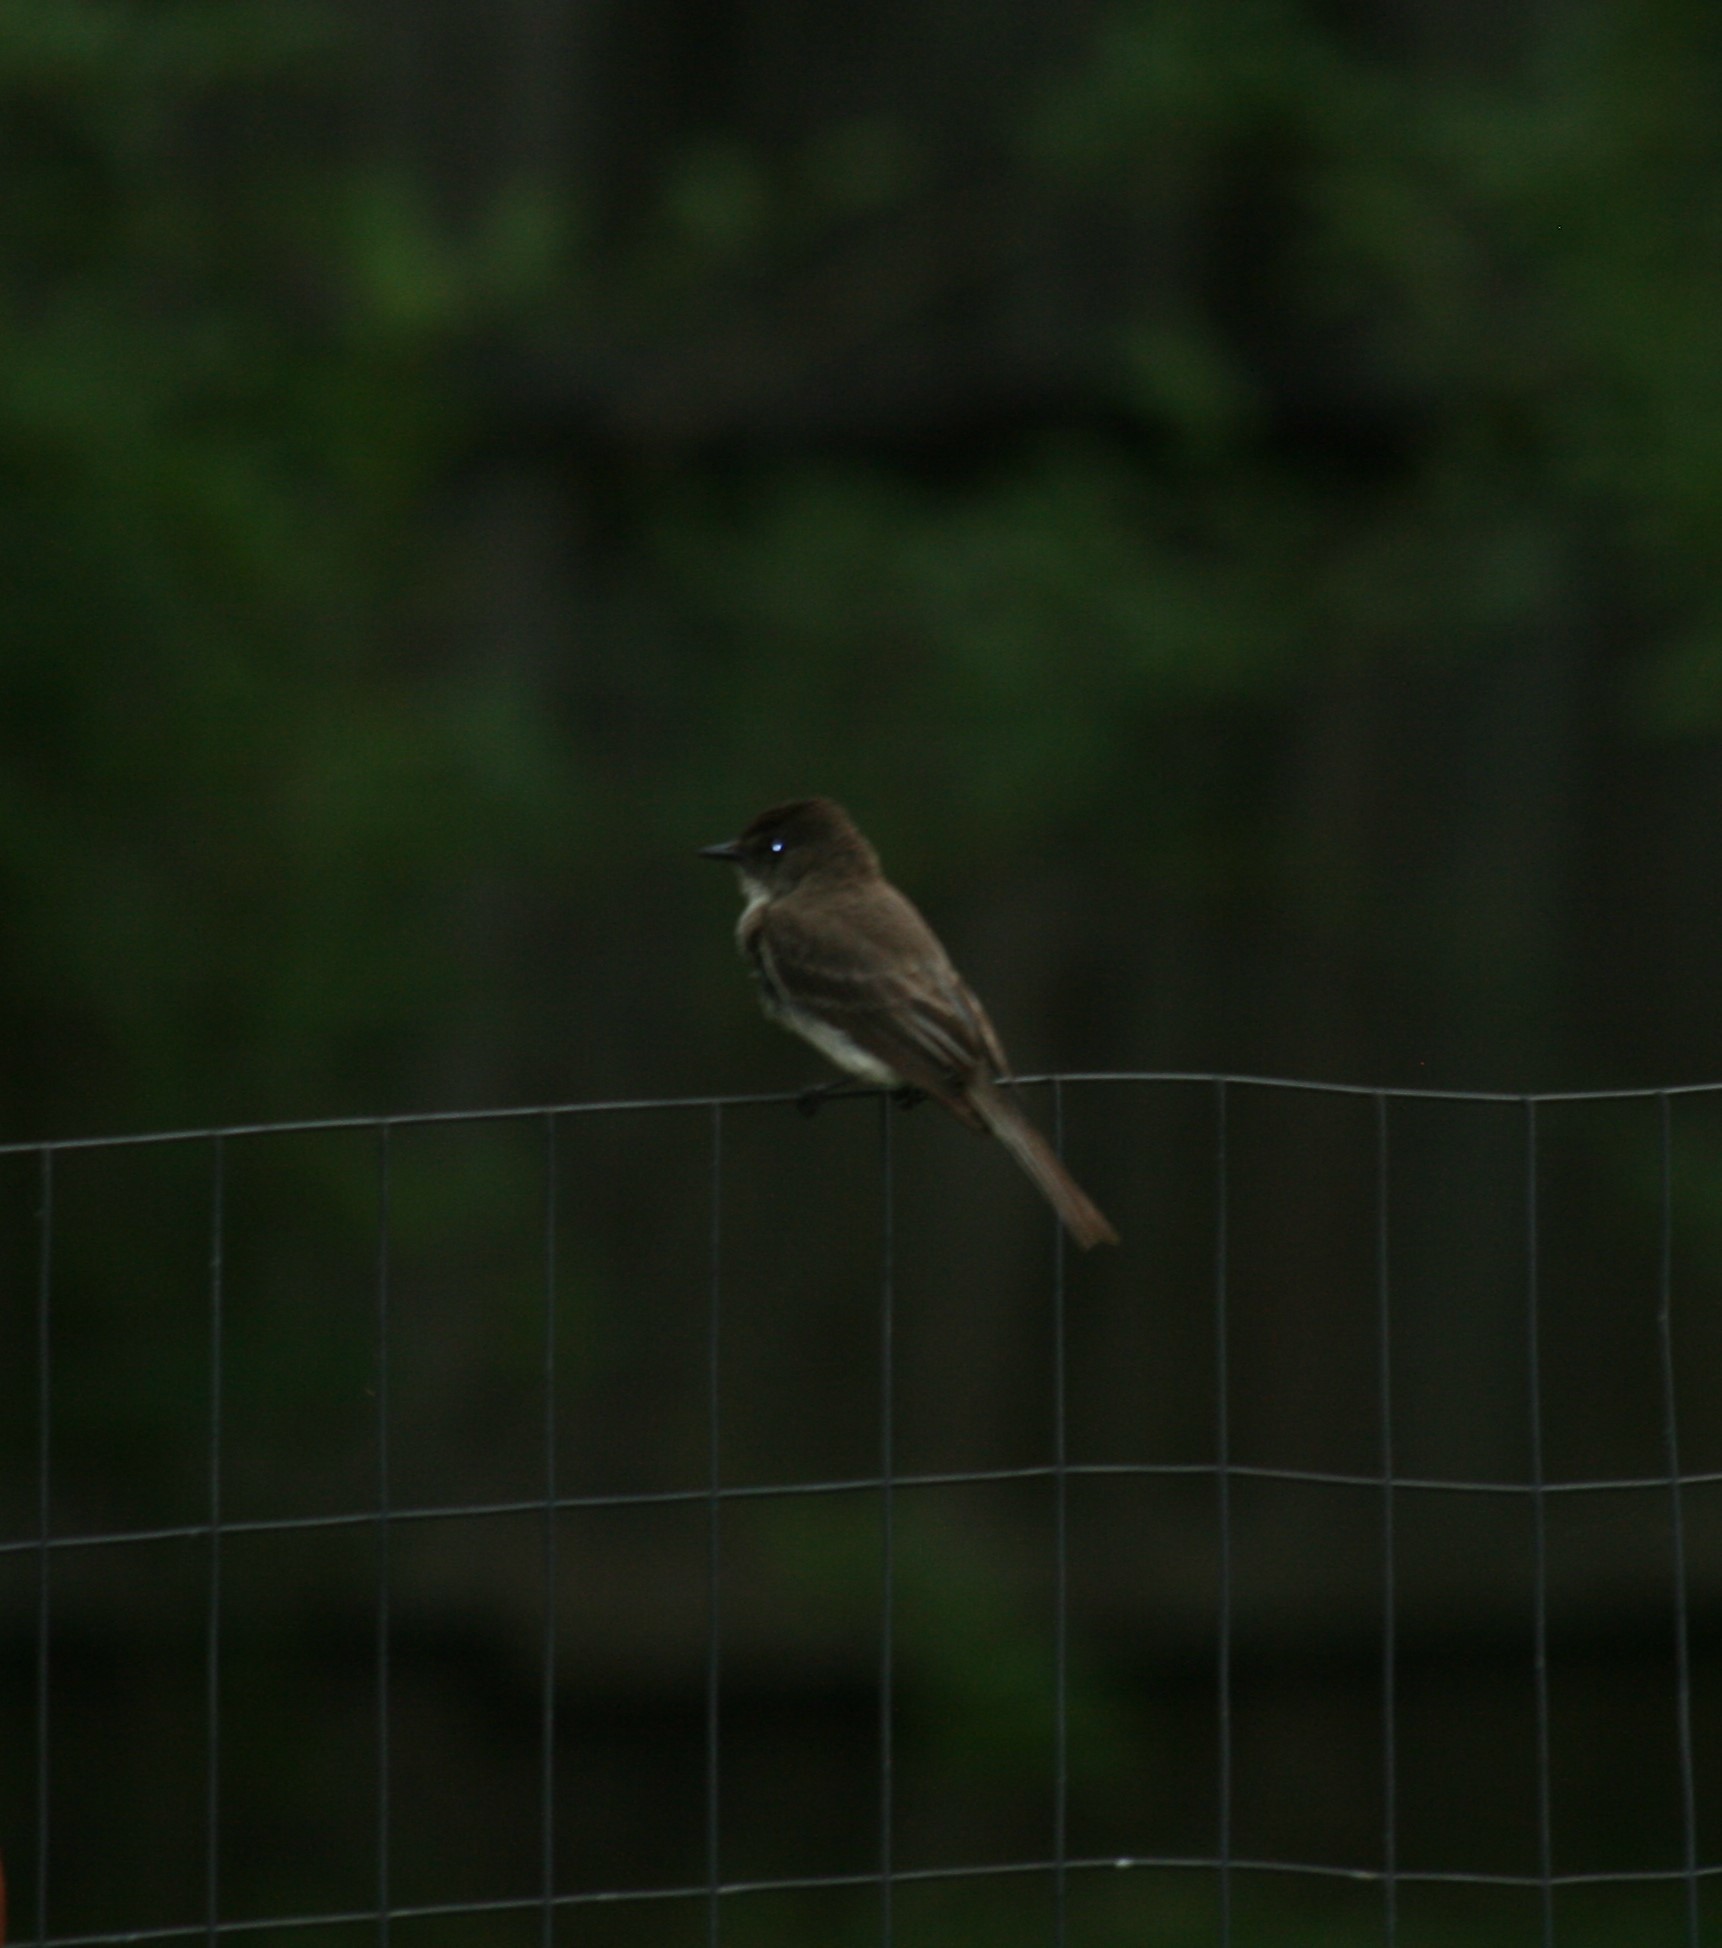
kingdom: Animalia
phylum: Chordata
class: Aves
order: Passeriformes
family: Tyrannidae
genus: Sayornis
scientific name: Sayornis phoebe
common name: Eastern phoebe
